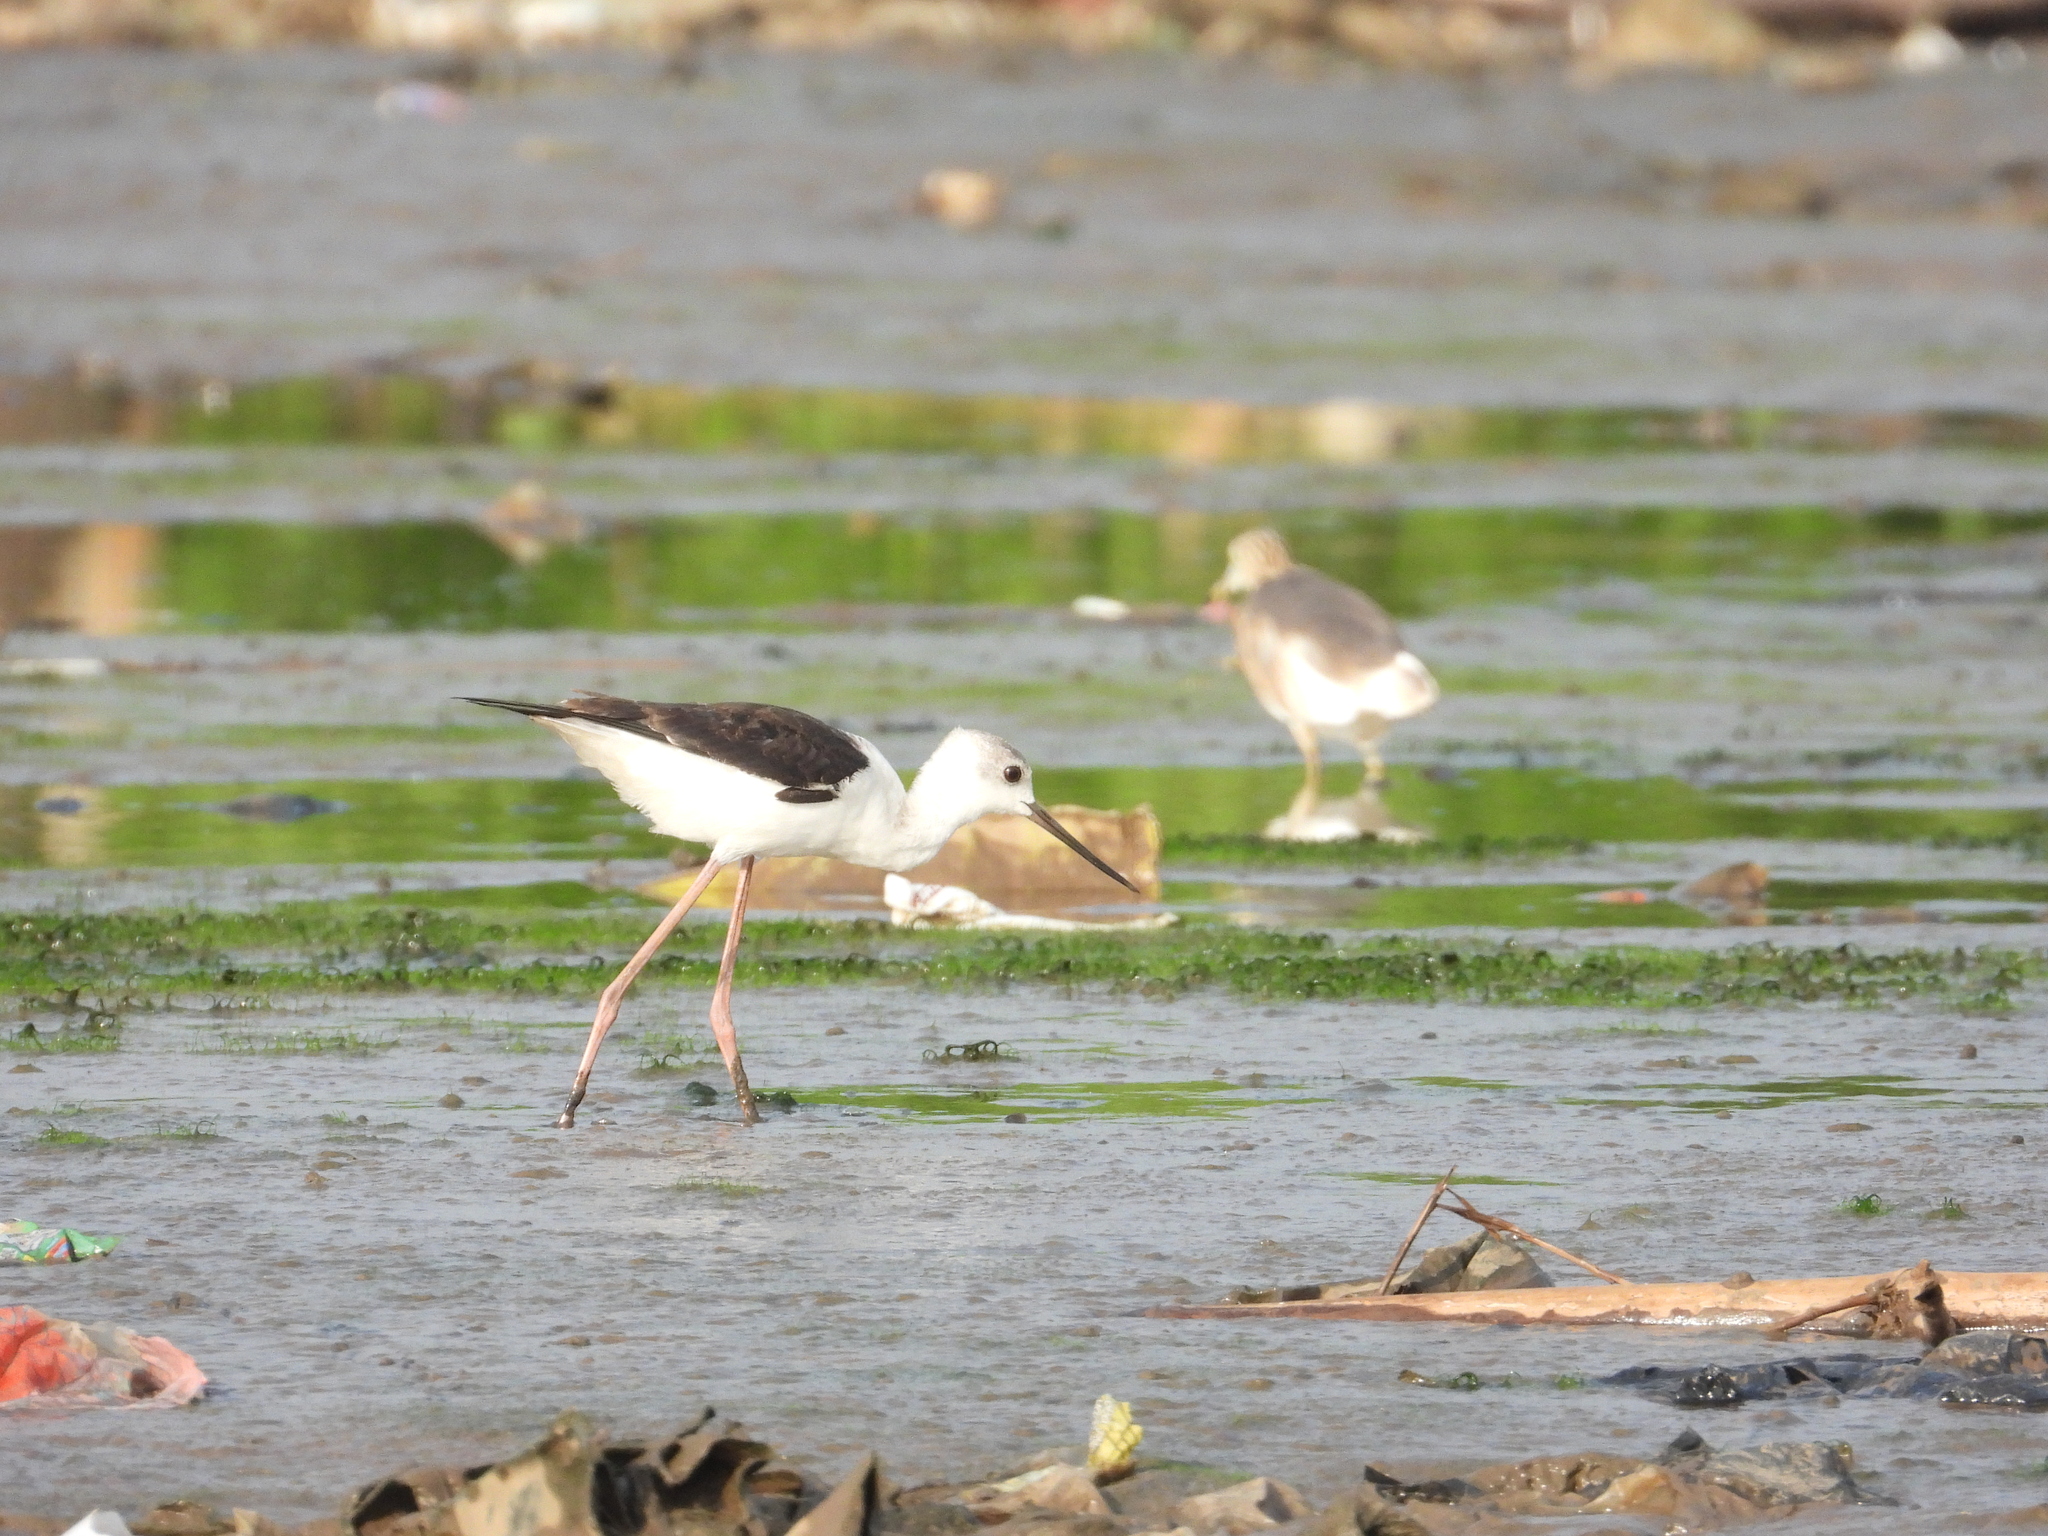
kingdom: Animalia
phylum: Chordata
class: Aves
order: Charadriiformes
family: Recurvirostridae
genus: Himantopus
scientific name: Himantopus leucocephalus
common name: White-headed stilt
